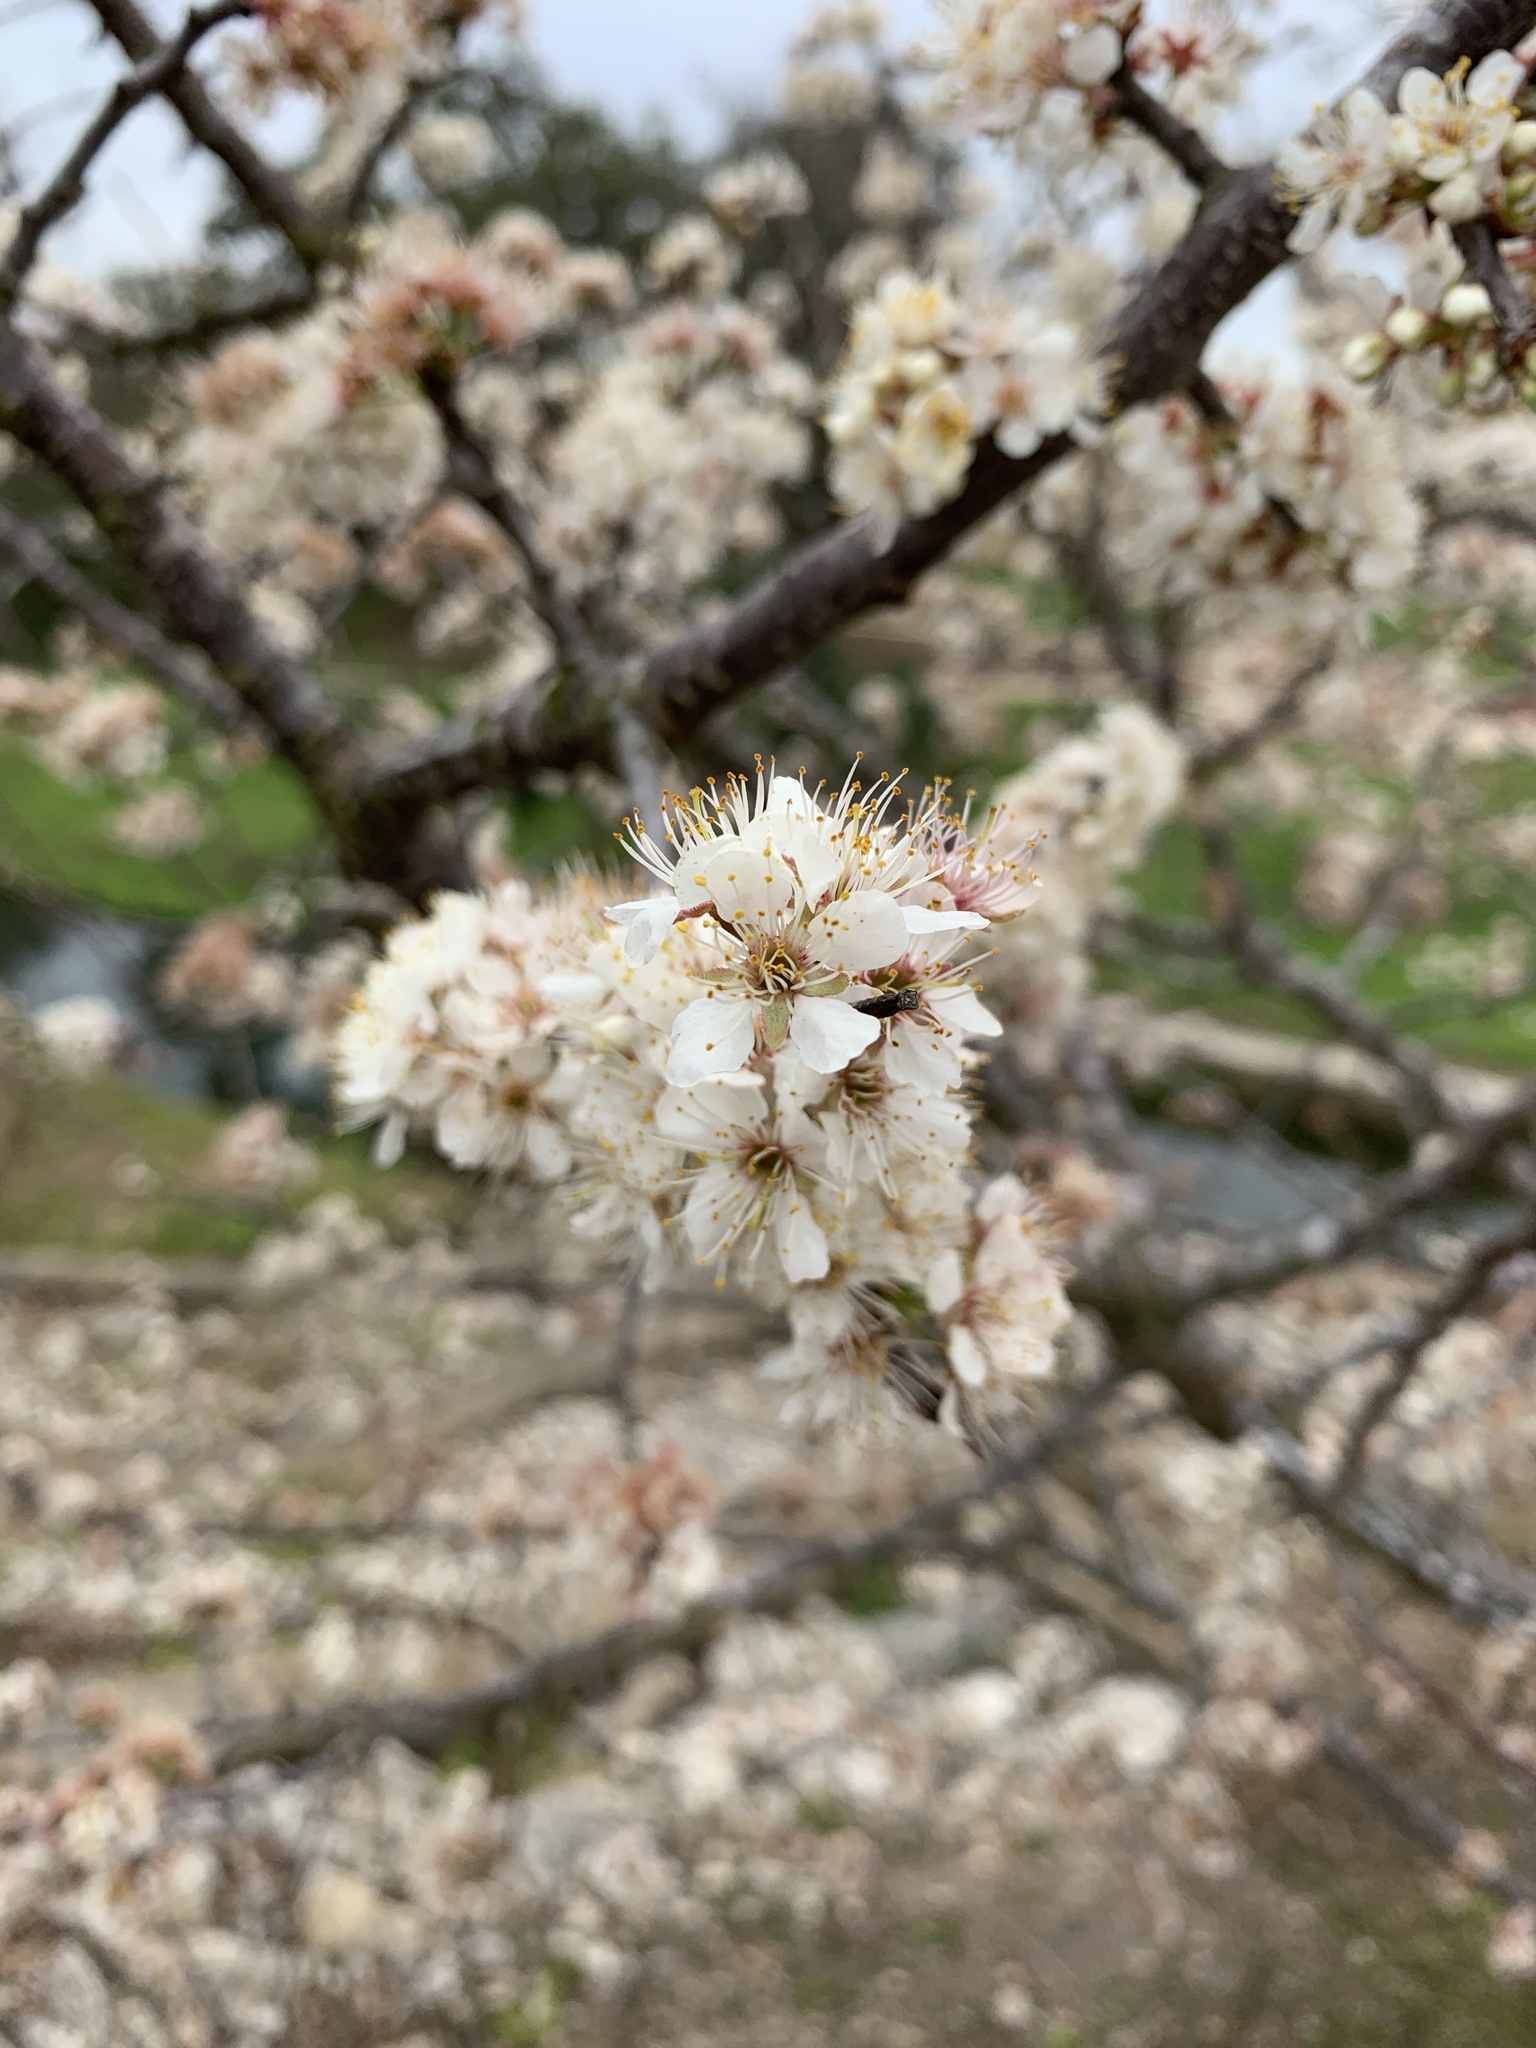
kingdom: Plantae
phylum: Tracheophyta
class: Magnoliopsida
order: Rosales
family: Rosaceae
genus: Prunus
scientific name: Prunus mexicana
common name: Mexican plum
